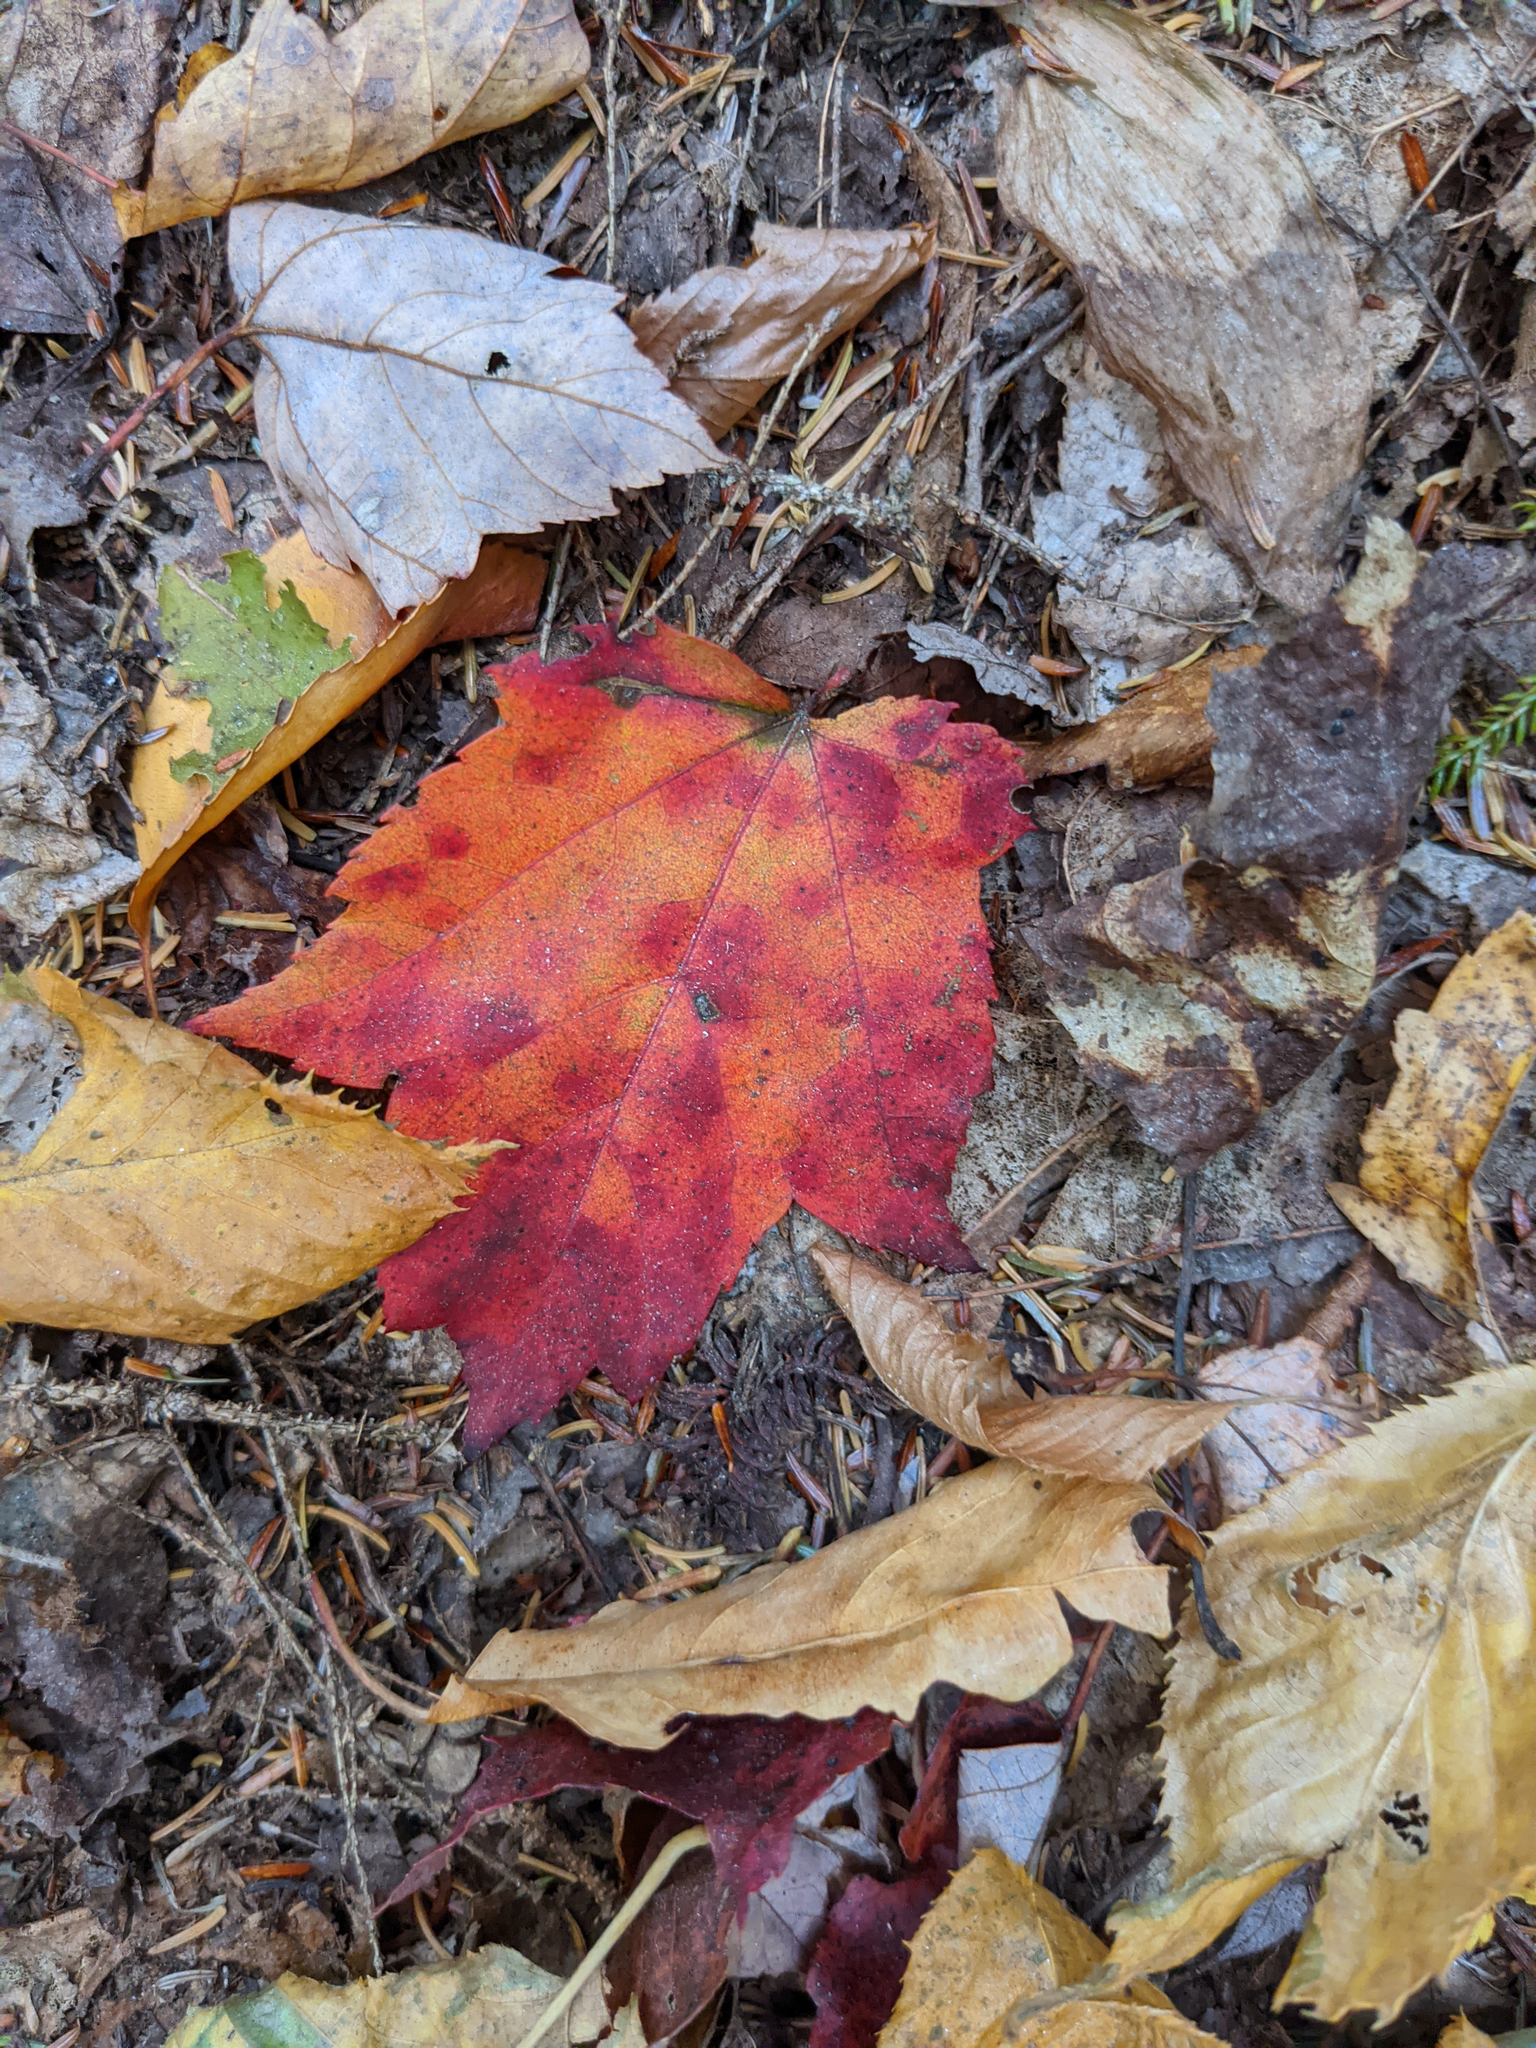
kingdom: Plantae
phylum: Tracheophyta
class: Magnoliopsida
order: Sapindales
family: Sapindaceae
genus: Acer
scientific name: Acer rubrum
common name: Red maple
